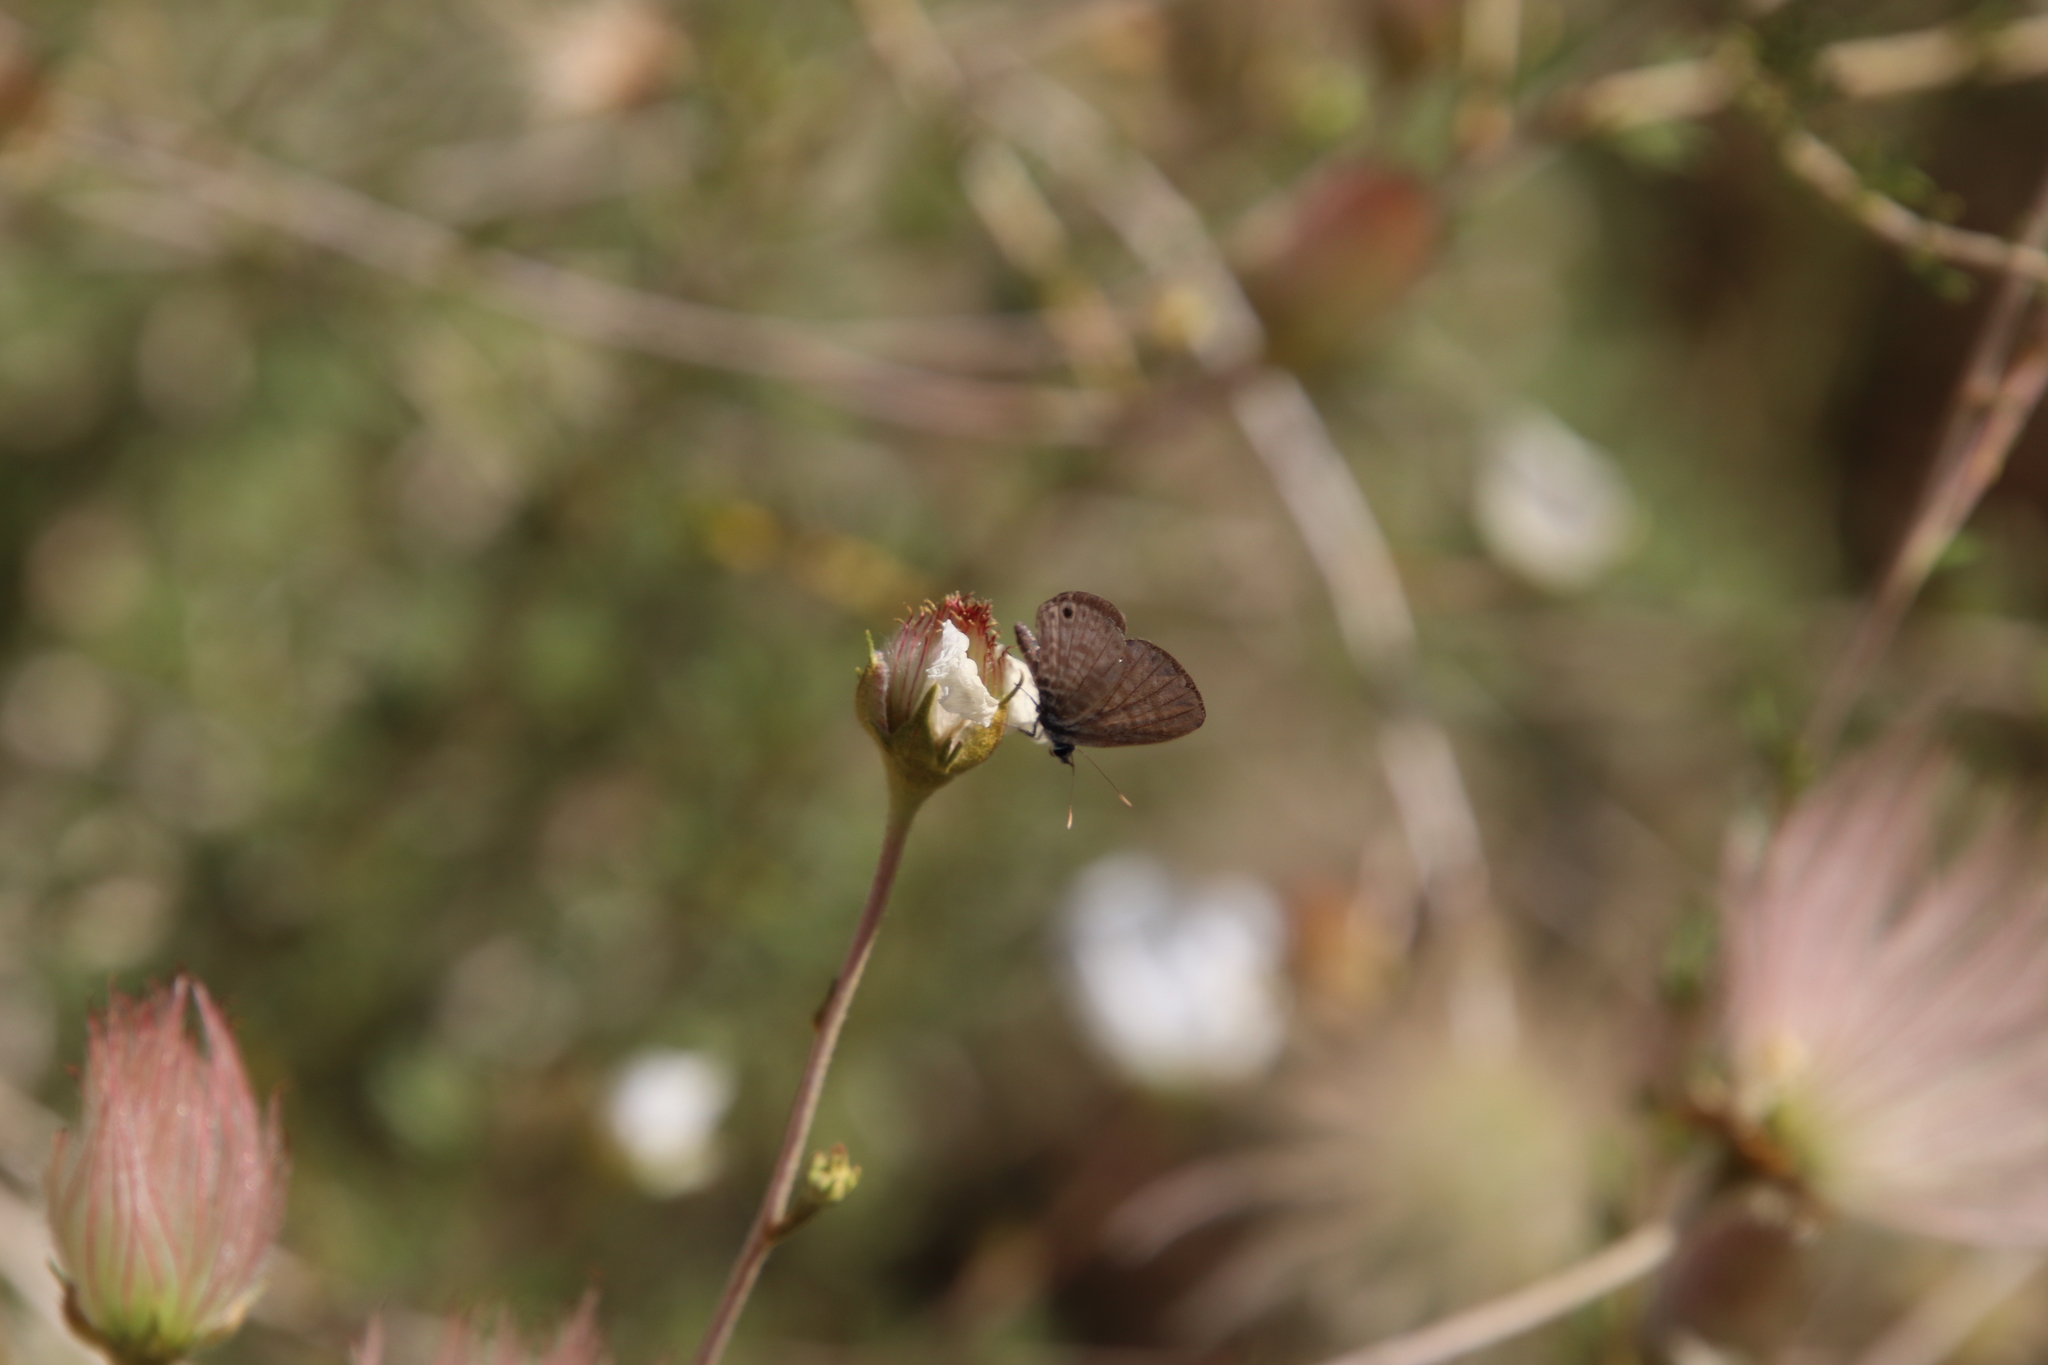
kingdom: Animalia
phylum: Arthropoda
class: Insecta
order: Lepidoptera
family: Lycaenidae
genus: Leptotes
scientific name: Leptotes marina
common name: Marine blue
